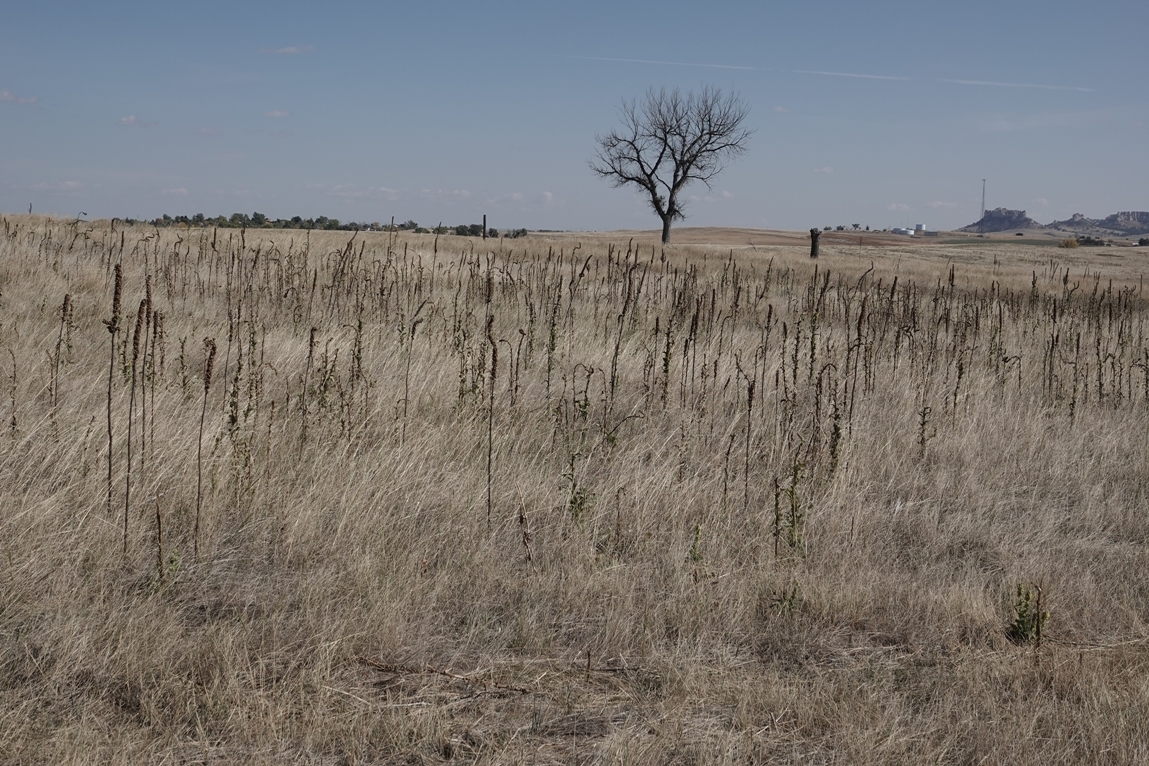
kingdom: Plantae
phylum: Tracheophyta
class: Magnoliopsida
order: Lamiales
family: Scrophulariaceae
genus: Verbascum
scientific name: Verbascum thapsus
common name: Common mullein
